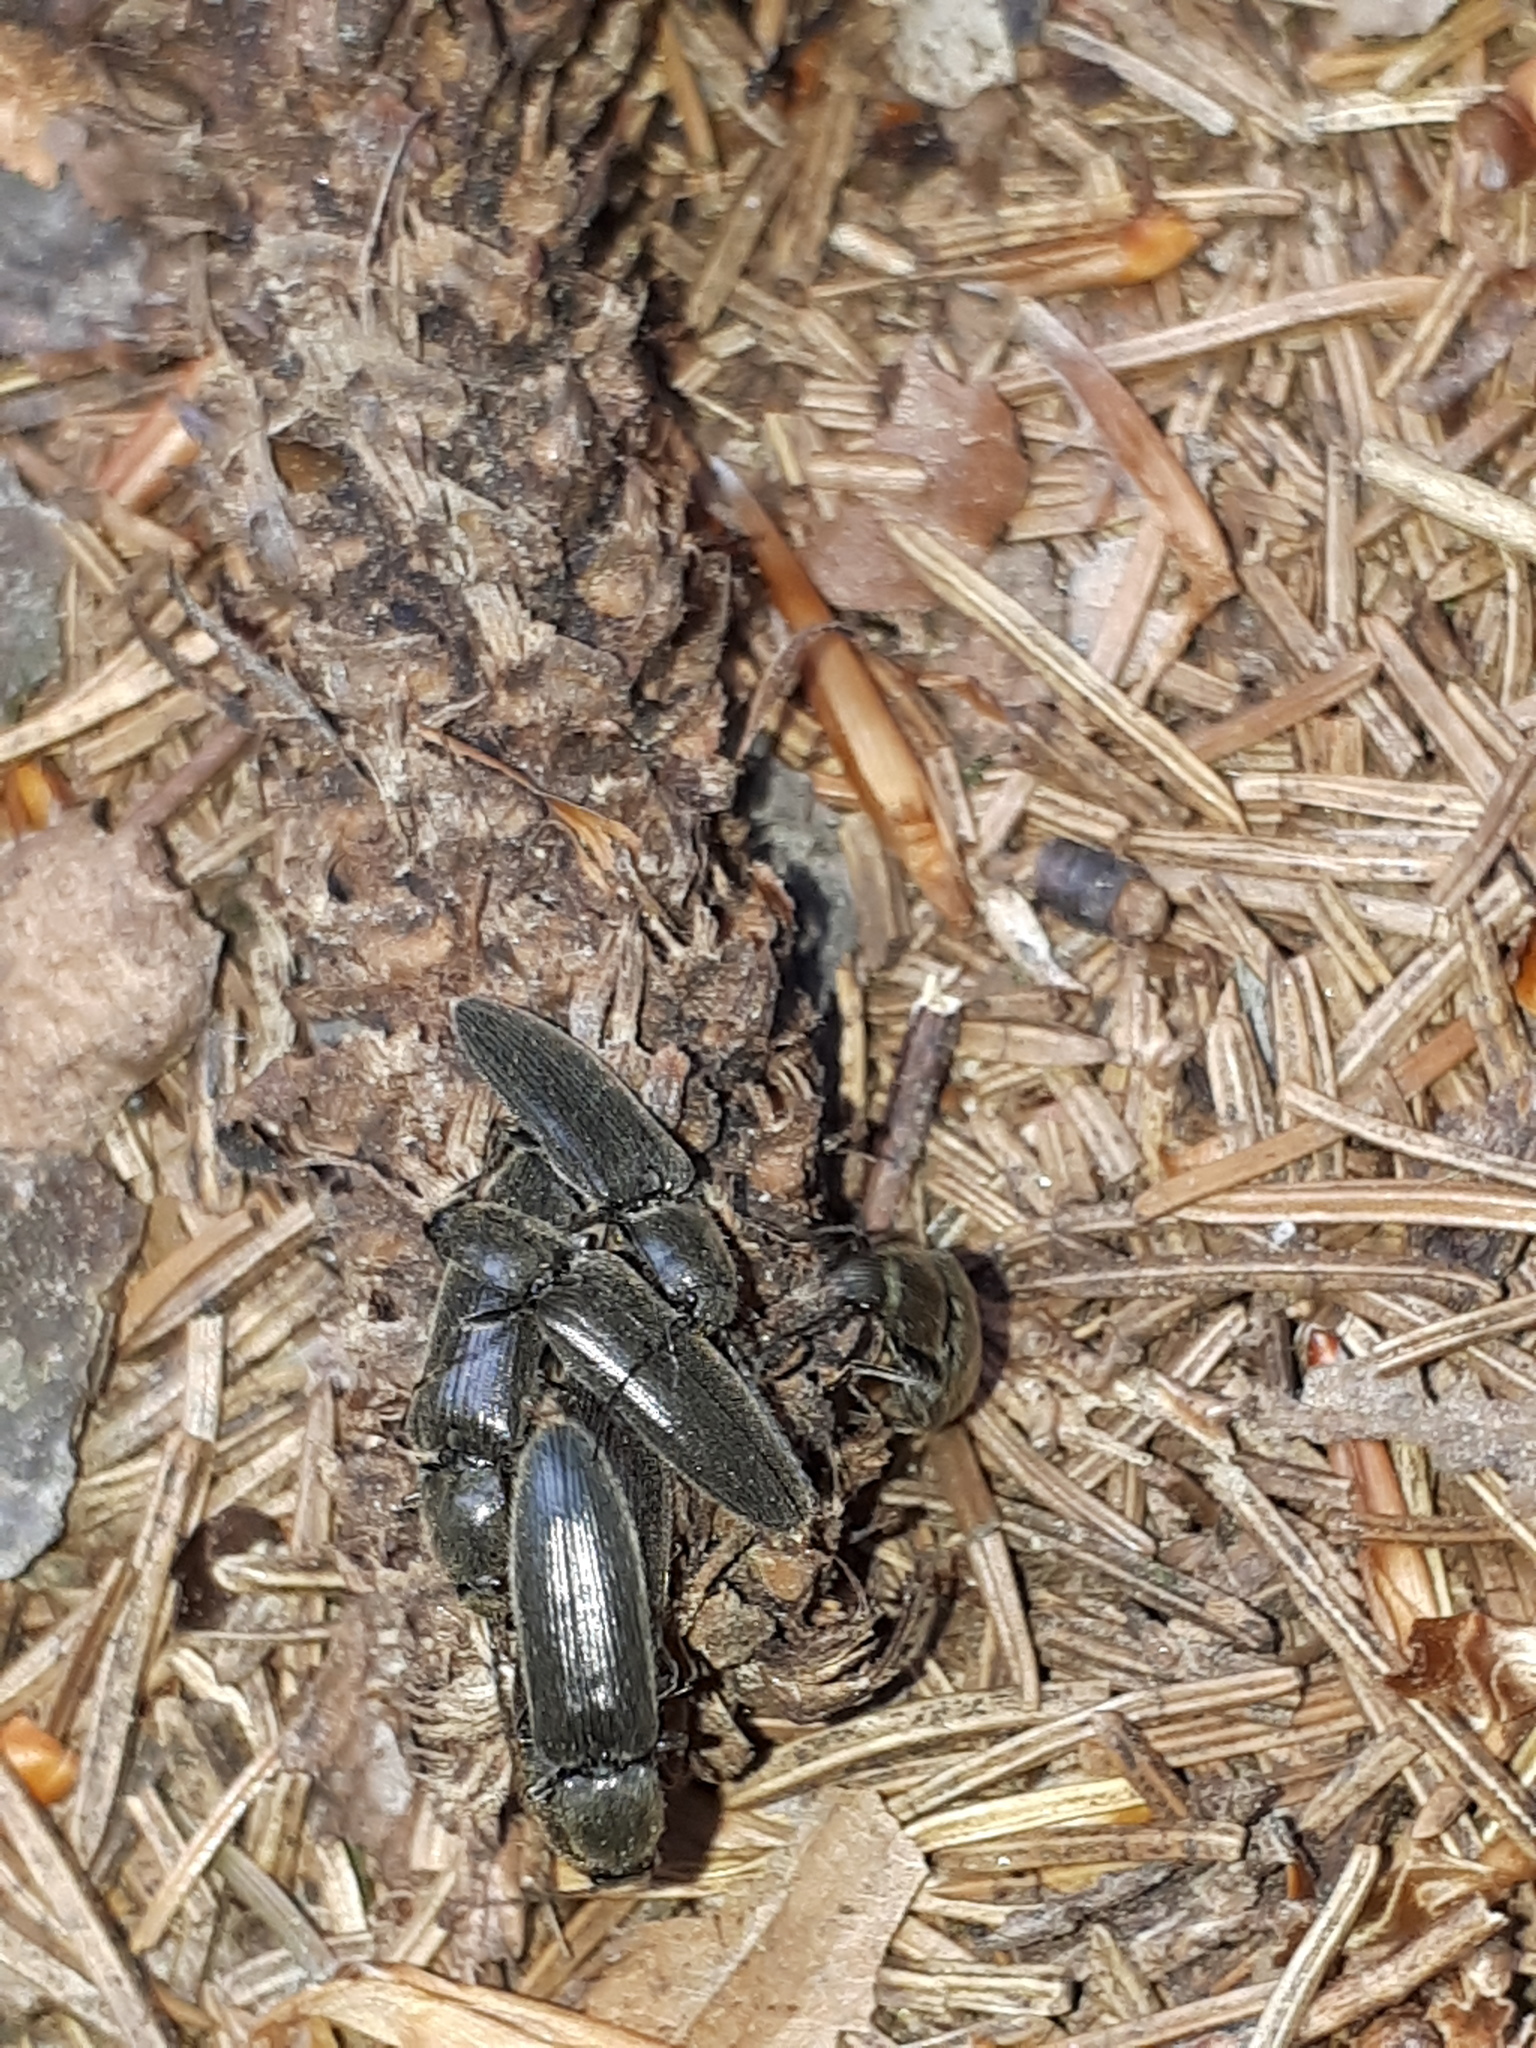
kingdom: Animalia
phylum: Arthropoda
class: Insecta
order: Coleoptera
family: Elateridae
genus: Athous
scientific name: Athous zebei
